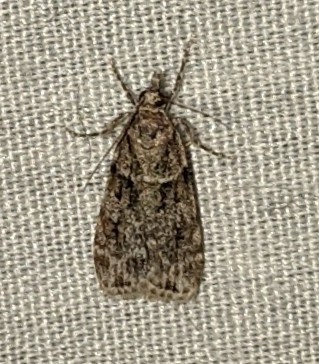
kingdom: Animalia
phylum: Arthropoda
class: Insecta
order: Lepidoptera
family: Crambidae
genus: Scoparia
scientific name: Scoparia biplagialis
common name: Double-striped scoparia moth
